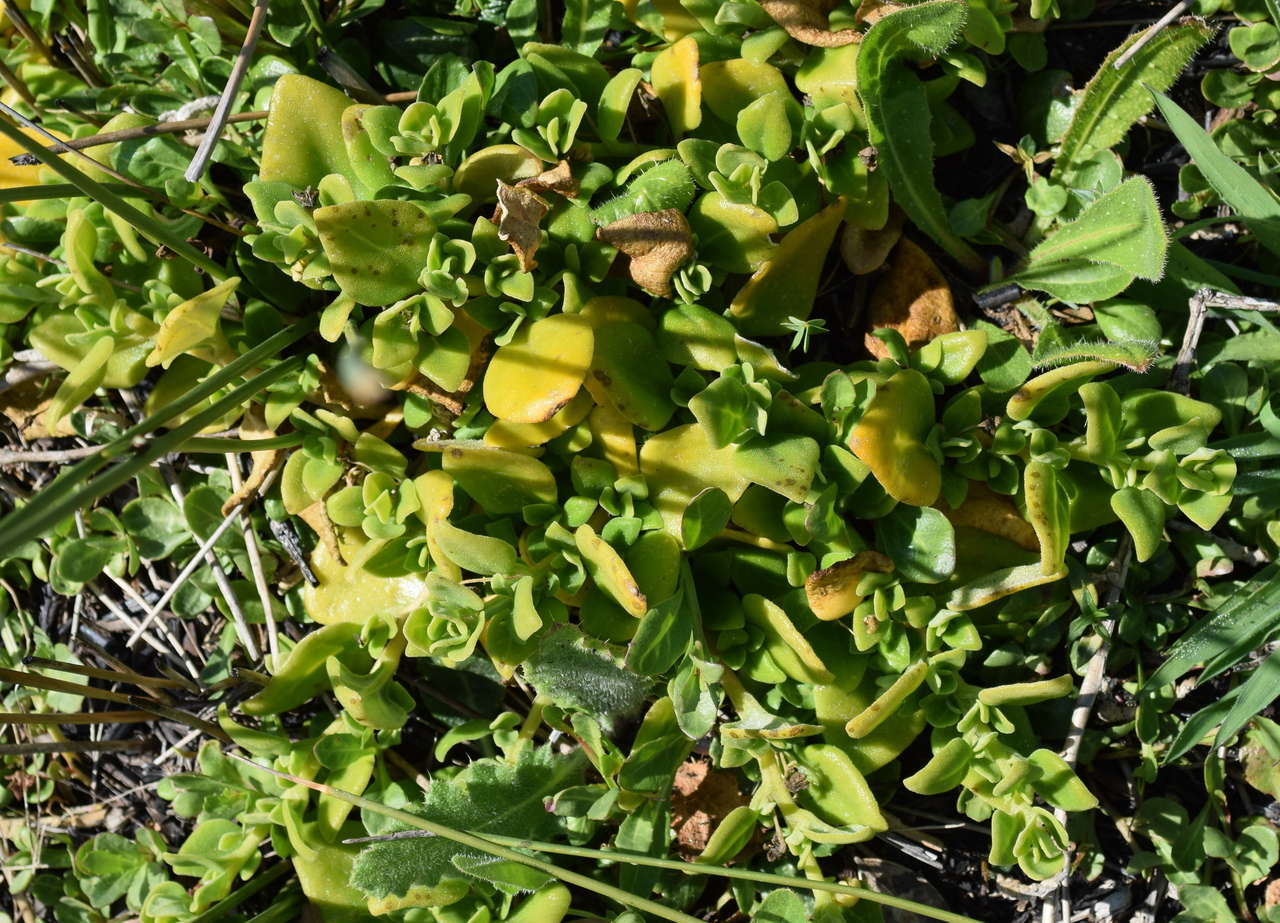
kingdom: Plantae
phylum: Tracheophyta
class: Magnoliopsida
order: Caryophyllales
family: Aizoaceae
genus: Tetragonia
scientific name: Tetragonia implexicoma
